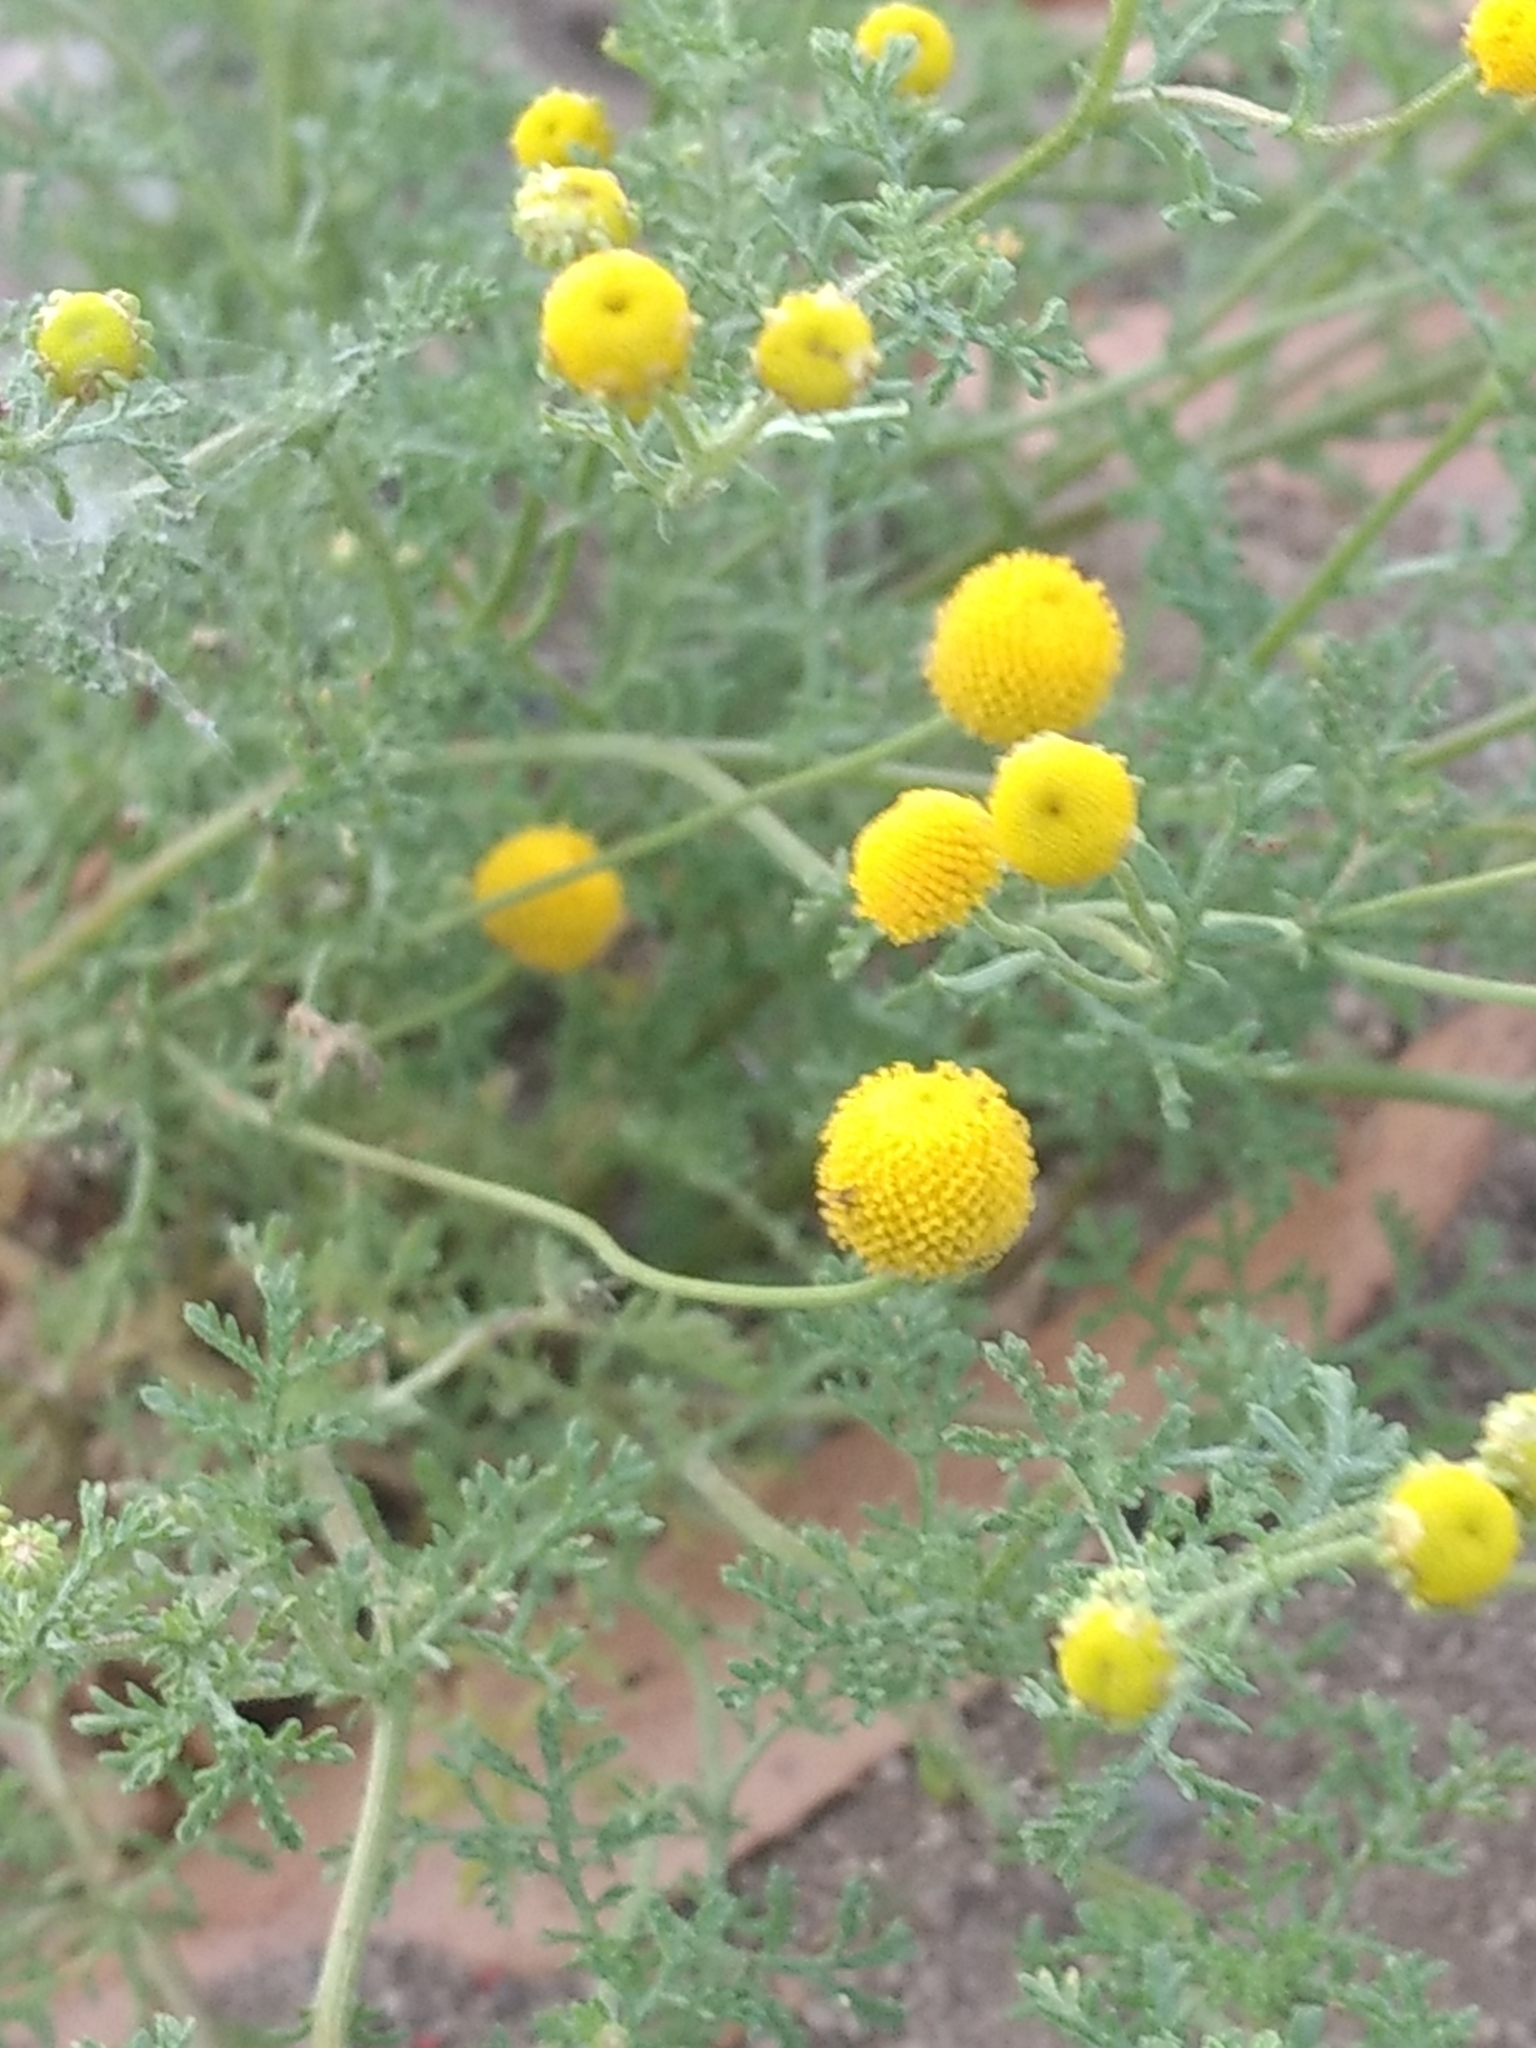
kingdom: Plantae
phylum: Tracheophyta
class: Magnoliopsida
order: Asterales
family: Asteraceae
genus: Oncosiphon
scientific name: Oncosiphon pilulifer
